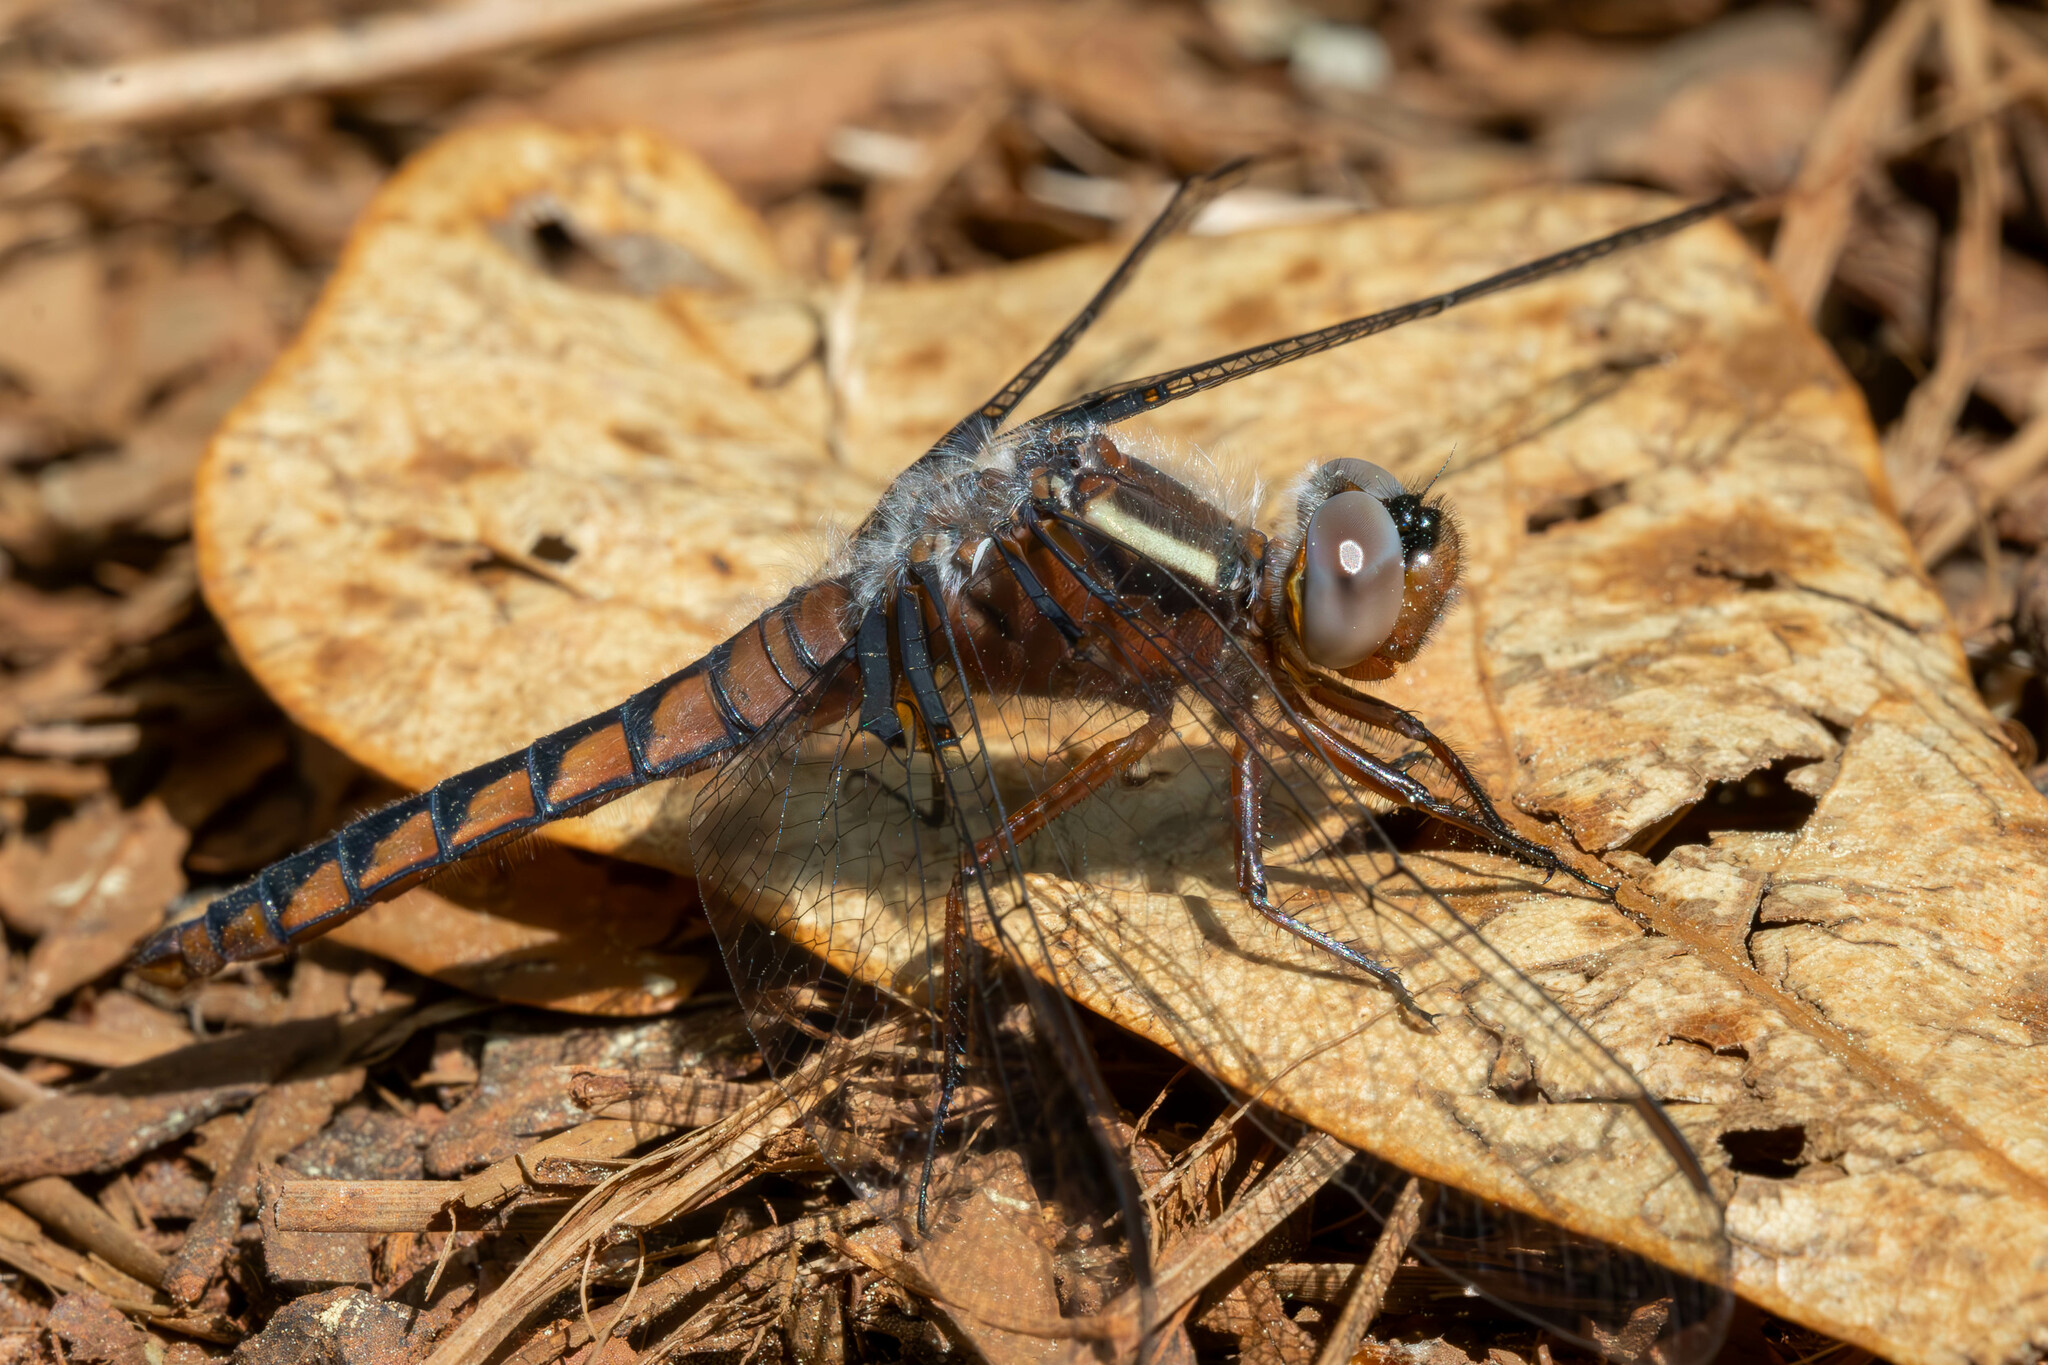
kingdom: Animalia
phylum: Arthropoda
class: Insecta
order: Odonata
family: Libellulidae
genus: Ladona
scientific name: Ladona deplanata
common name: Blue corporal
